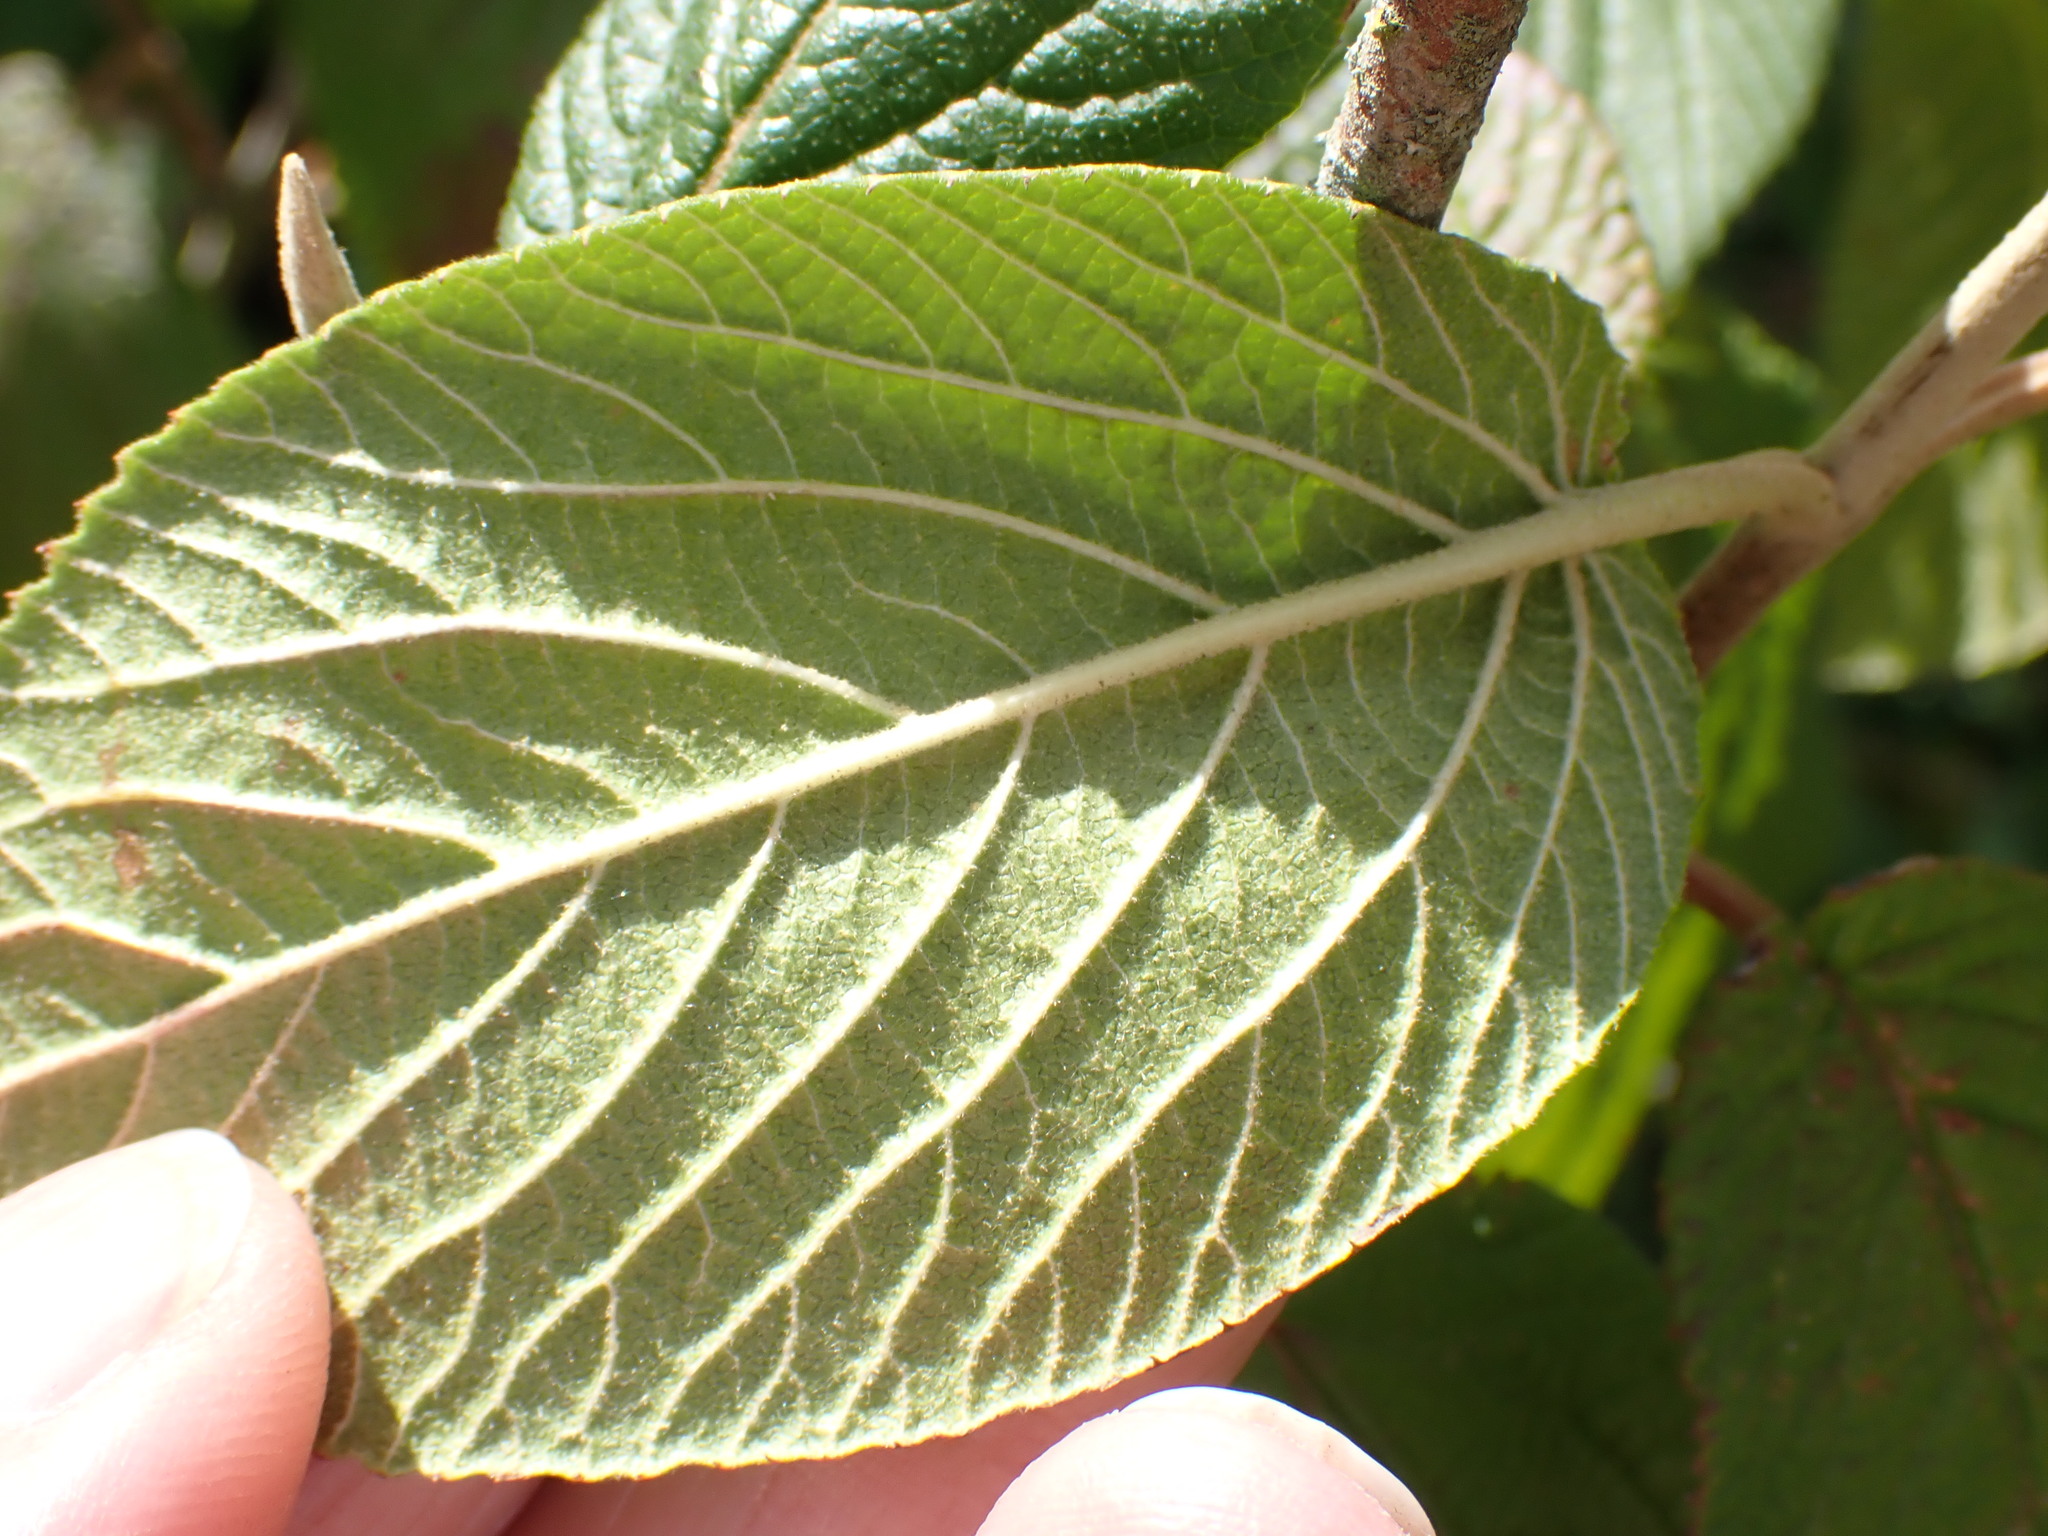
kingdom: Plantae
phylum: Tracheophyta
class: Magnoliopsida
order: Dipsacales
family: Viburnaceae
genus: Viburnum
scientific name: Viburnum lantana
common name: Wayfaring tree
